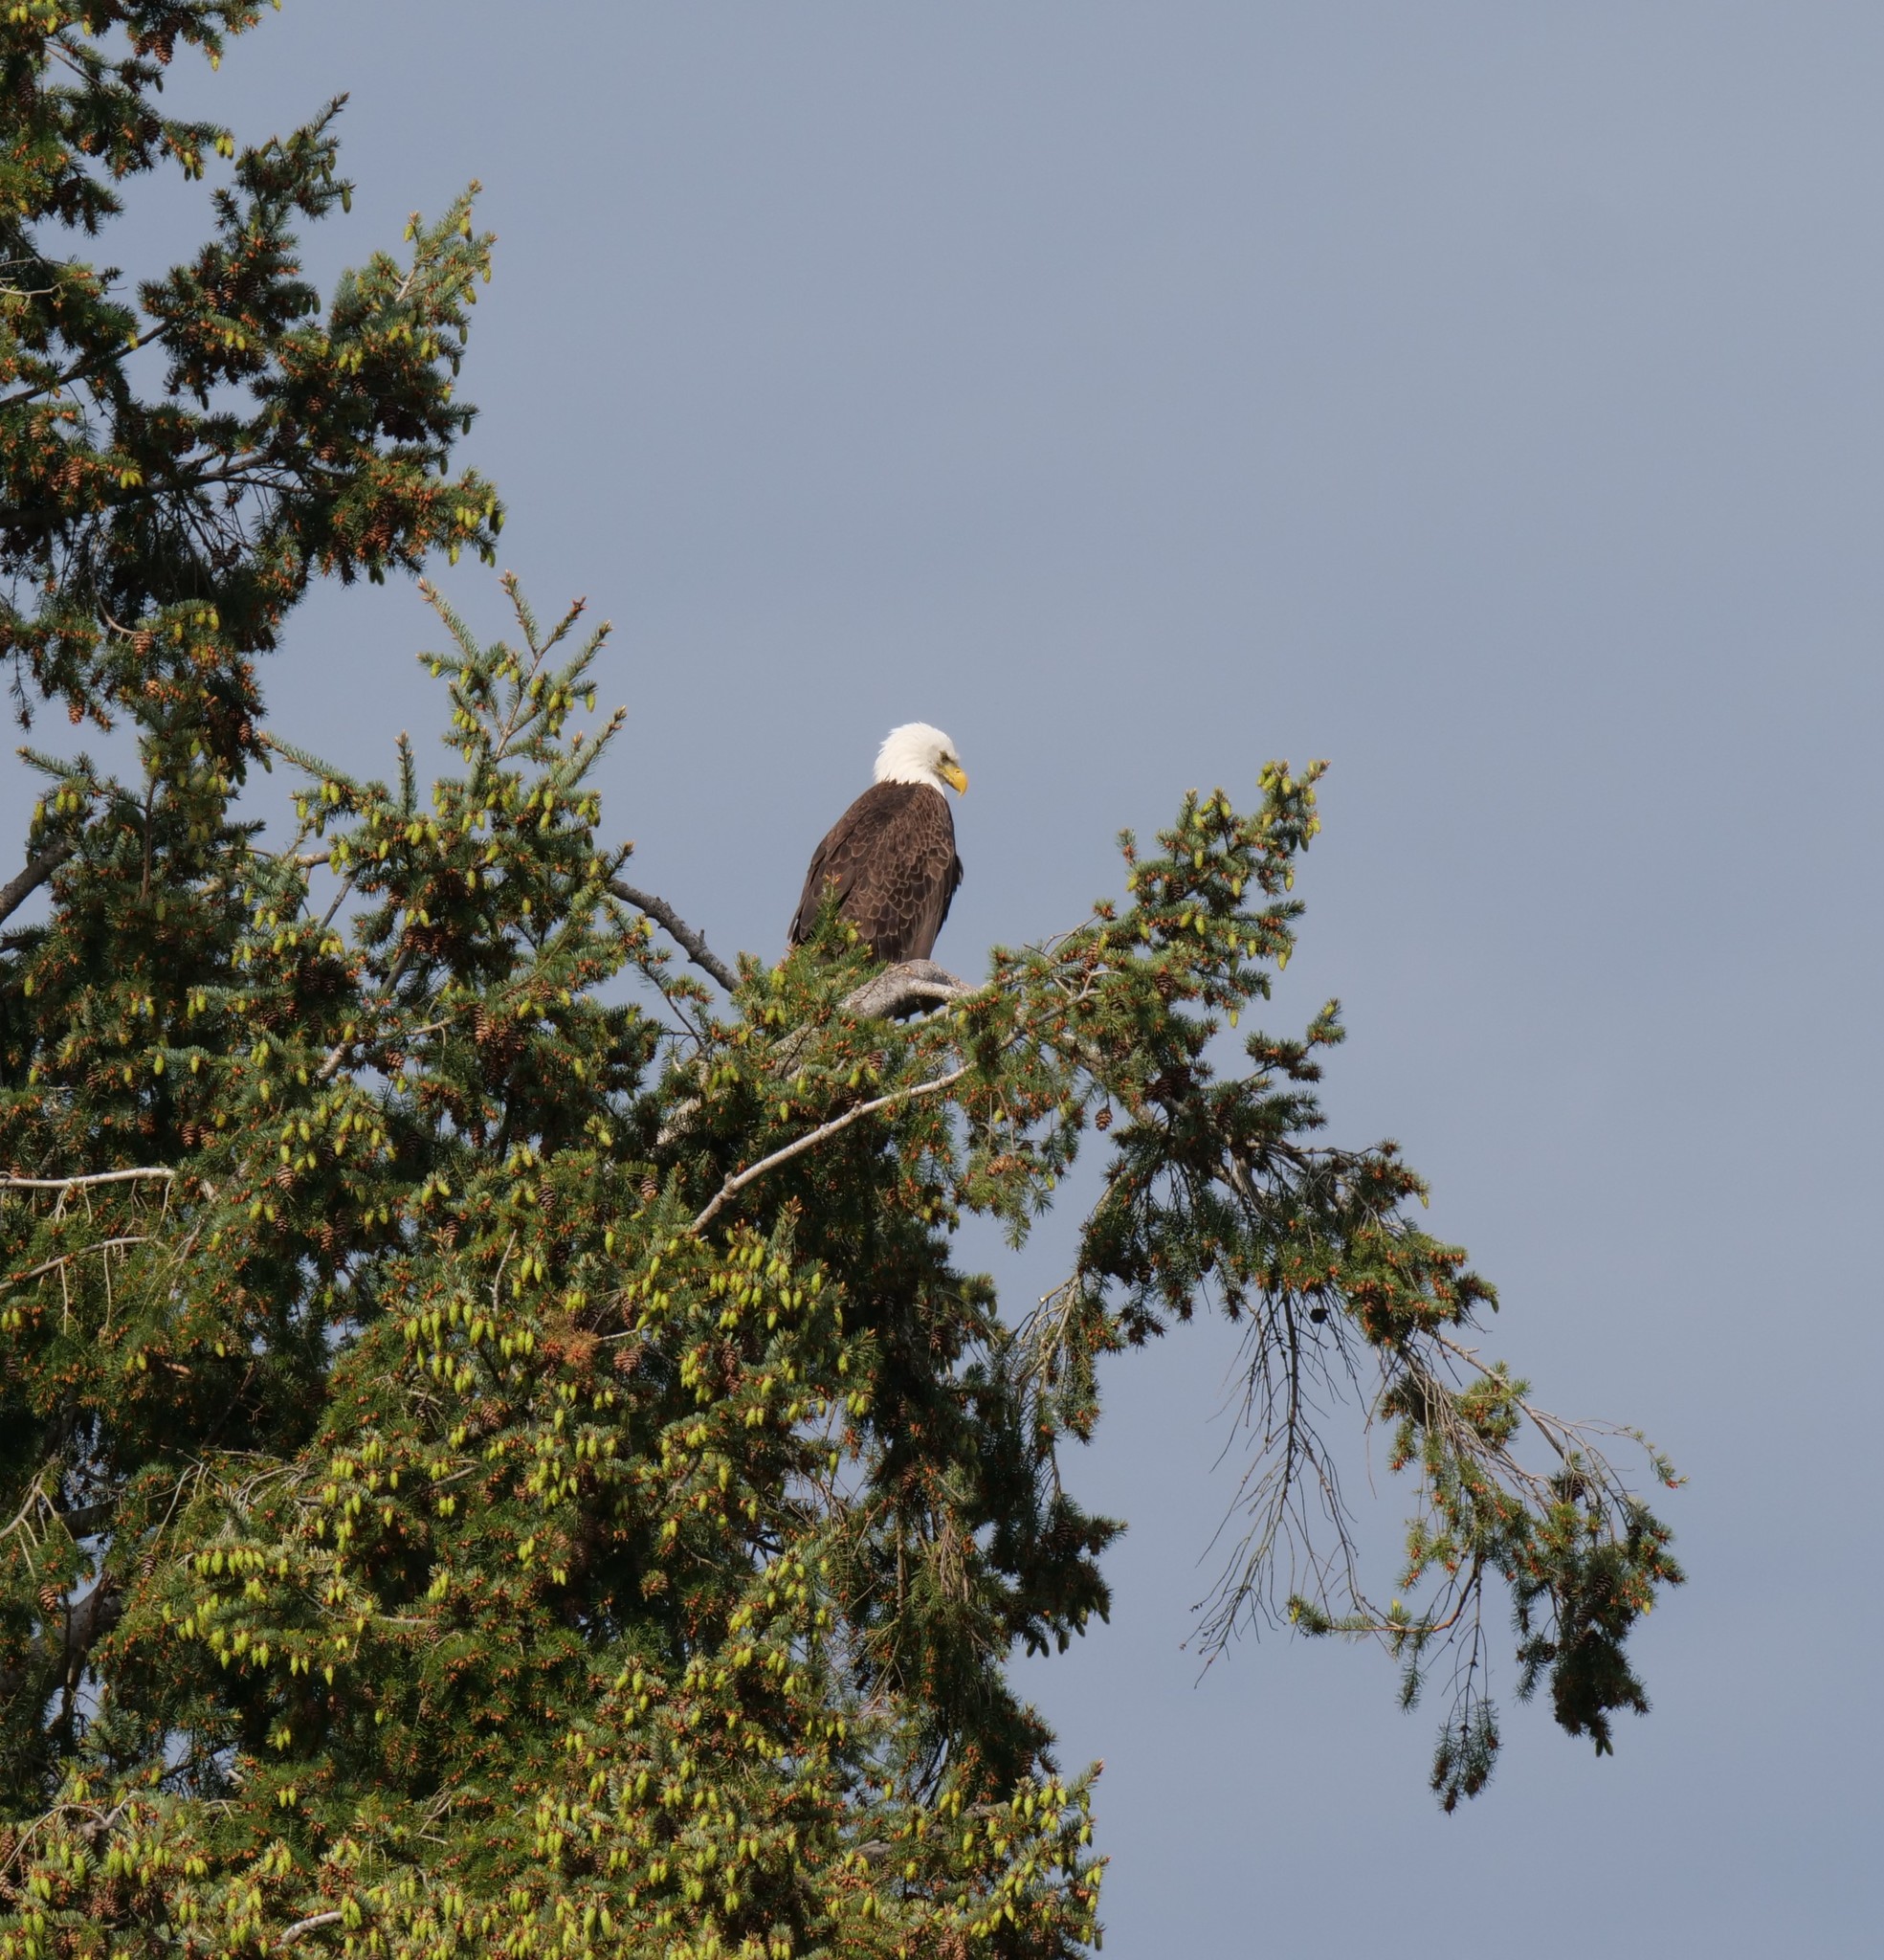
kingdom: Animalia
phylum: Chordata
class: Aves
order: Accipitriformes
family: Accipitridae
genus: Haliaeetus
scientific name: Haliaeetus leucocephalus
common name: Bald eagle
